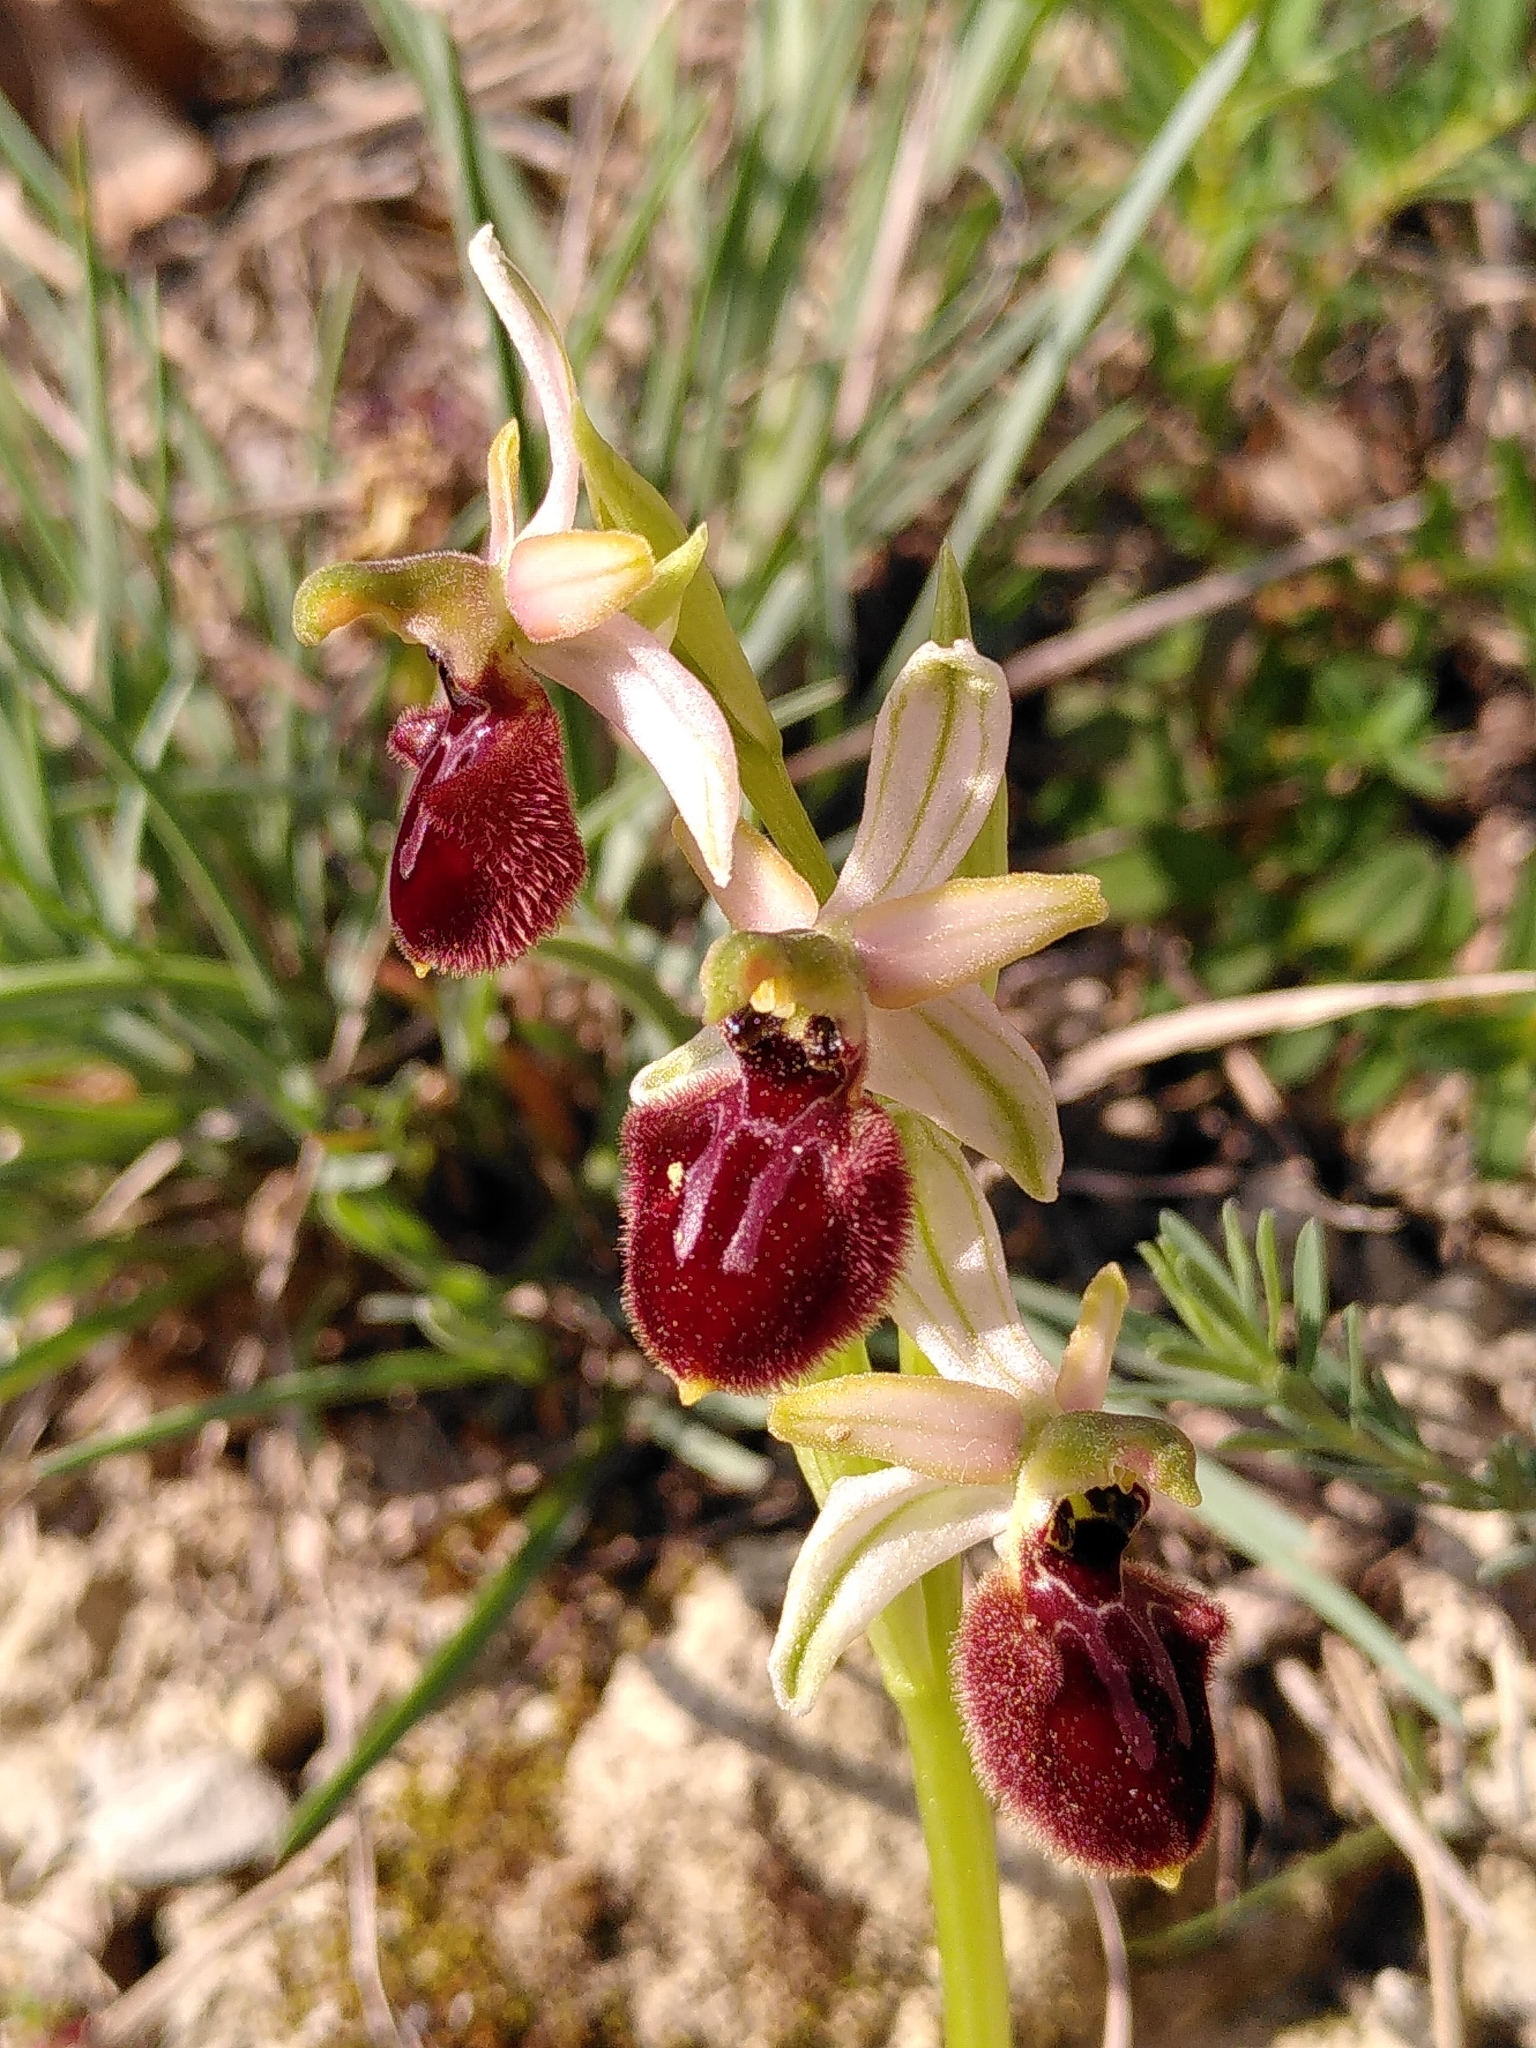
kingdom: Plantae
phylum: Tracheophyta
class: Liliopsida
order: Asparagales
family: Orchidaceae
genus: Ophrys
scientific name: Ophrys sphegodes
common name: Early spider-orchid
